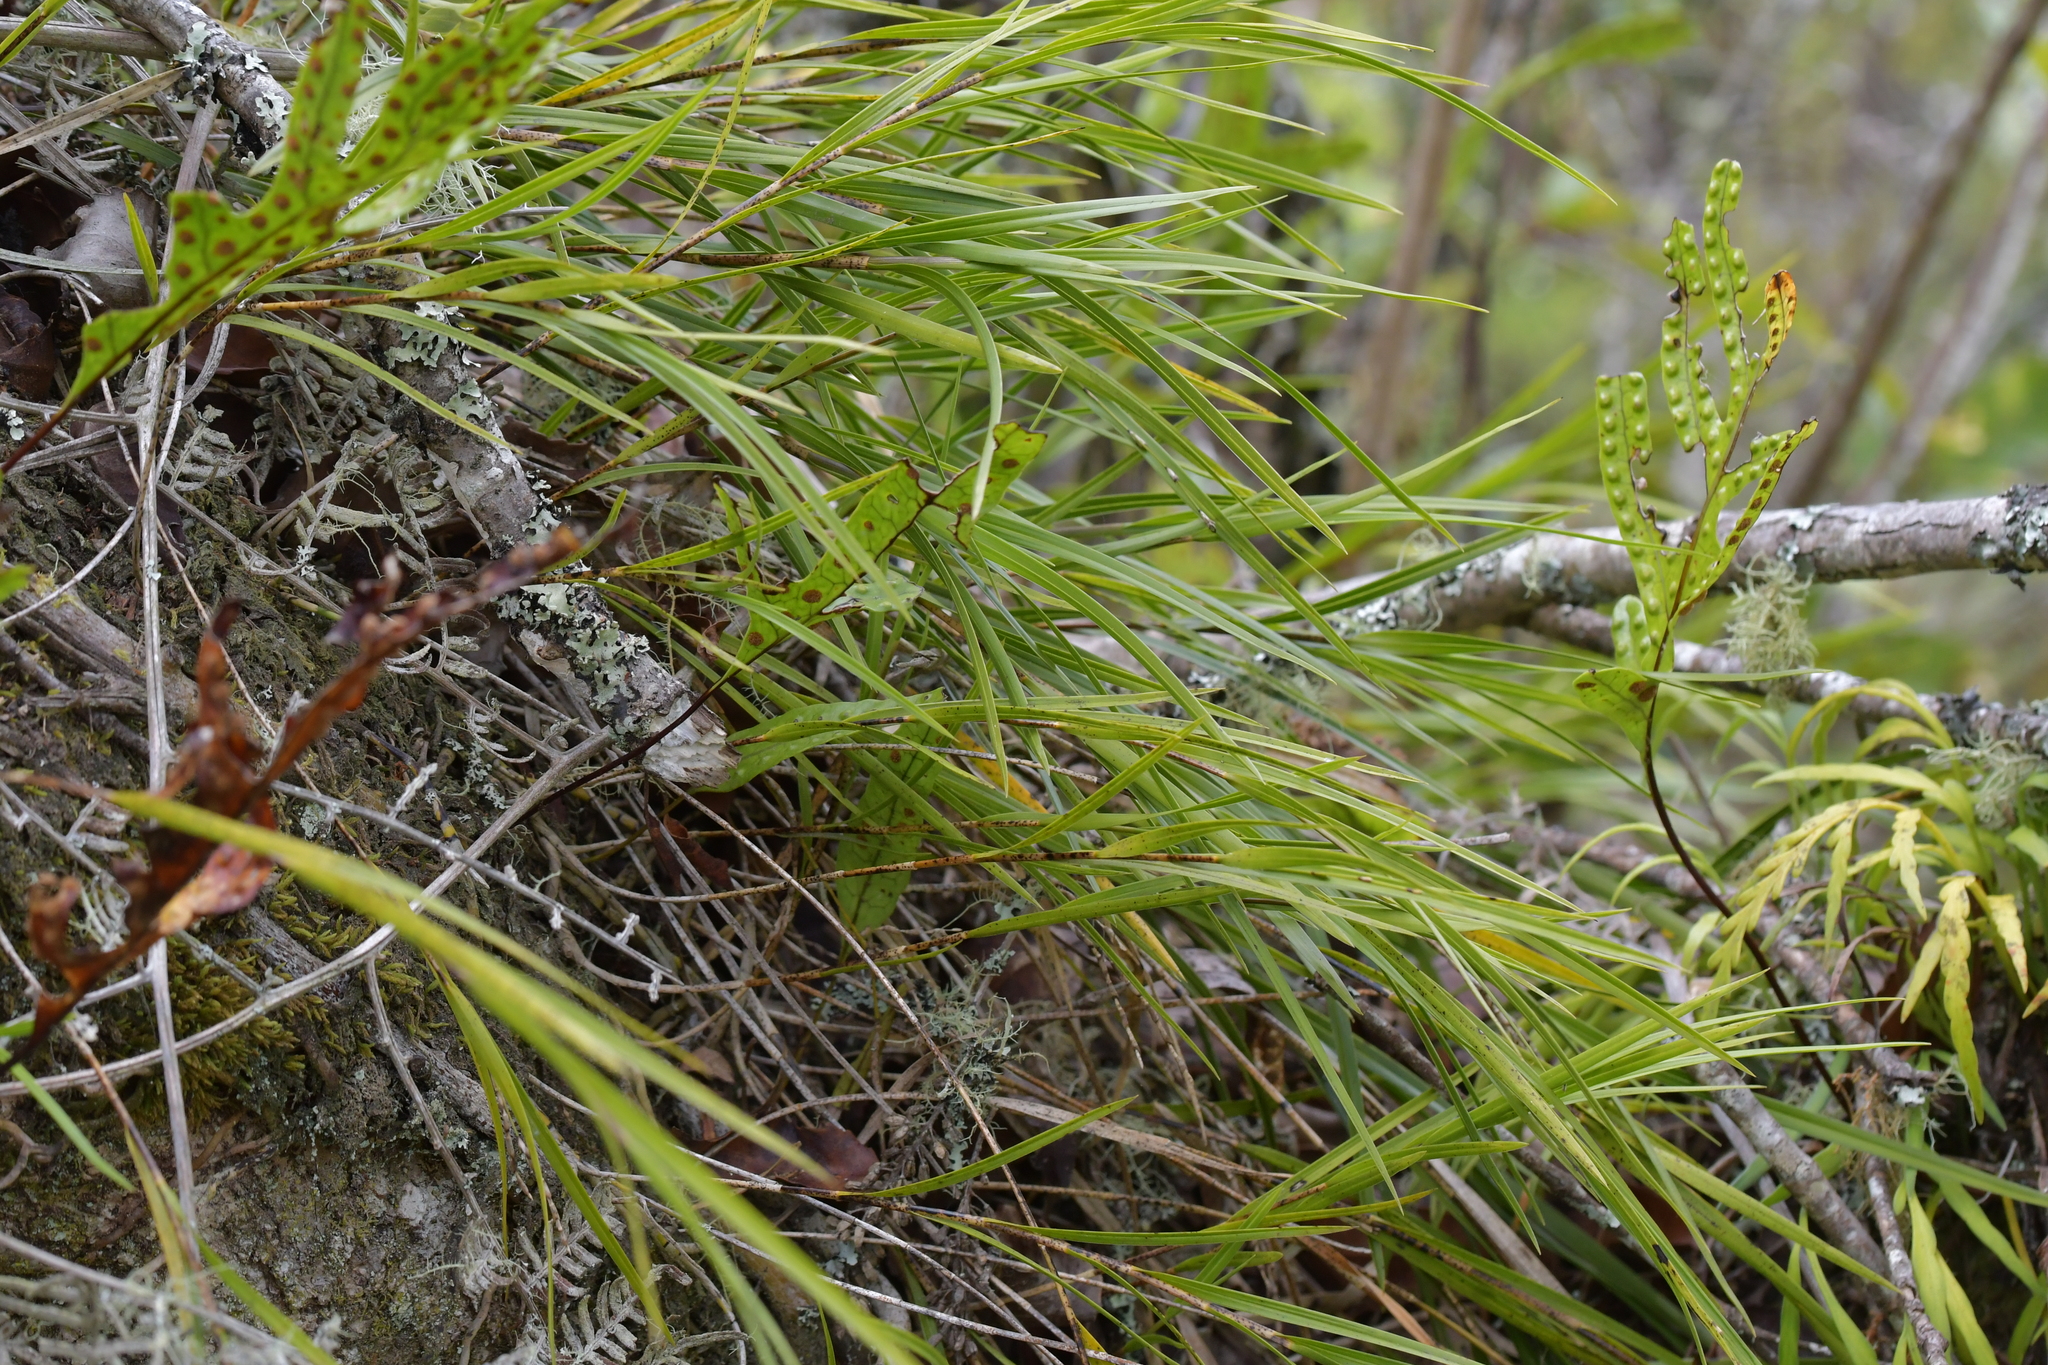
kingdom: Plantae
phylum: Tracheophyta
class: Liliopsida
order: Asparagales
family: Orchidaceae
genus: Earina
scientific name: Earina mucronata
